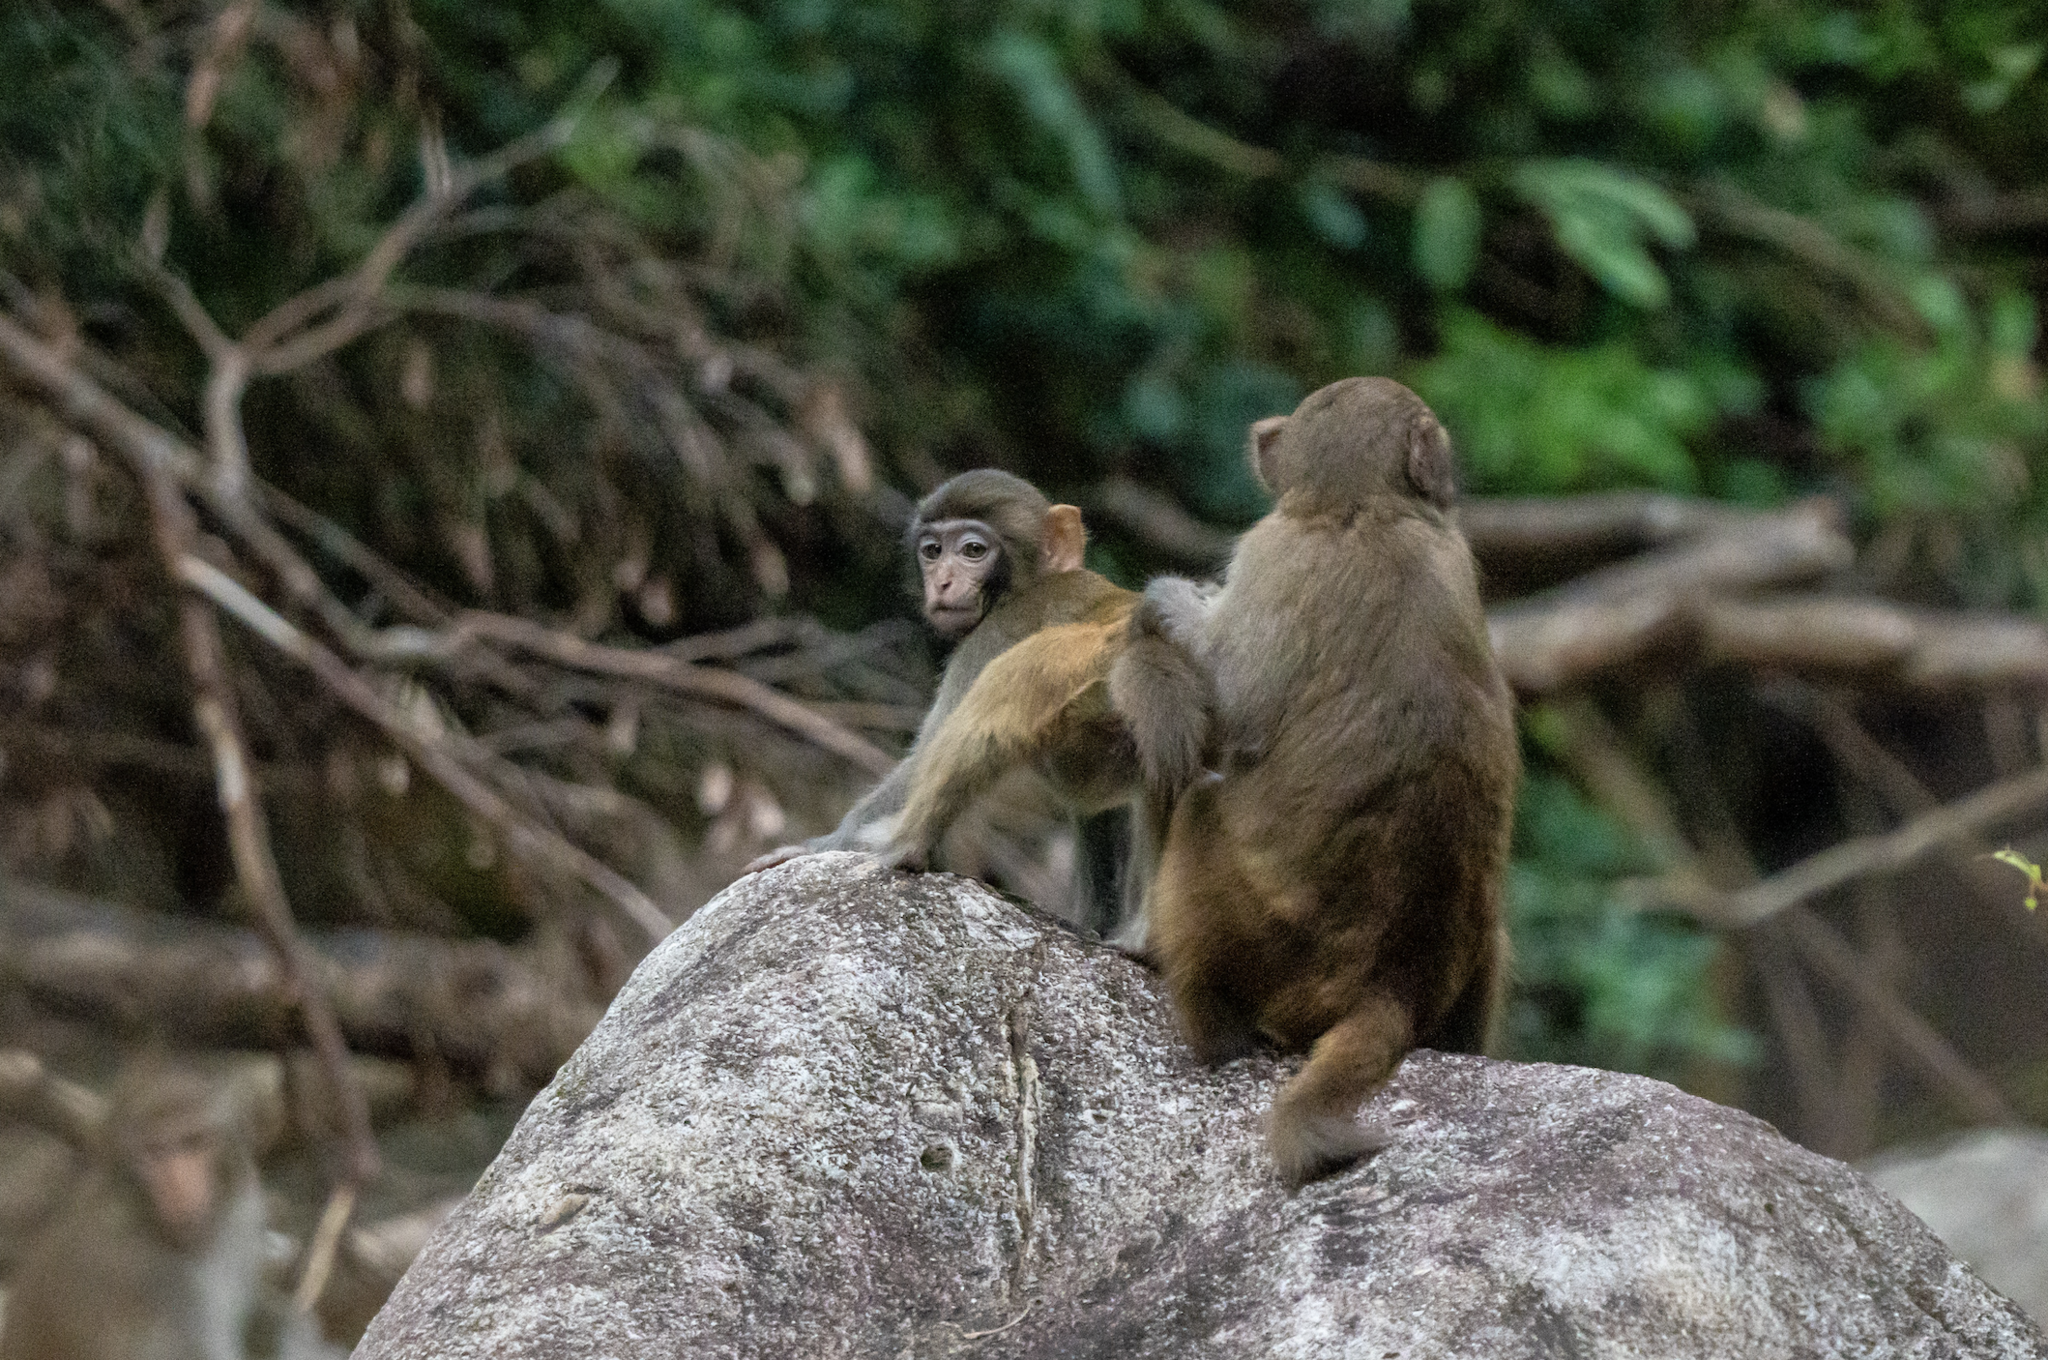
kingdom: Animalia
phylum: Chordata
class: Mammalia
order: Primates
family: Cercopithecidae
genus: Macaca
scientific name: Macaca mulatta
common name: Rhesus monkey
